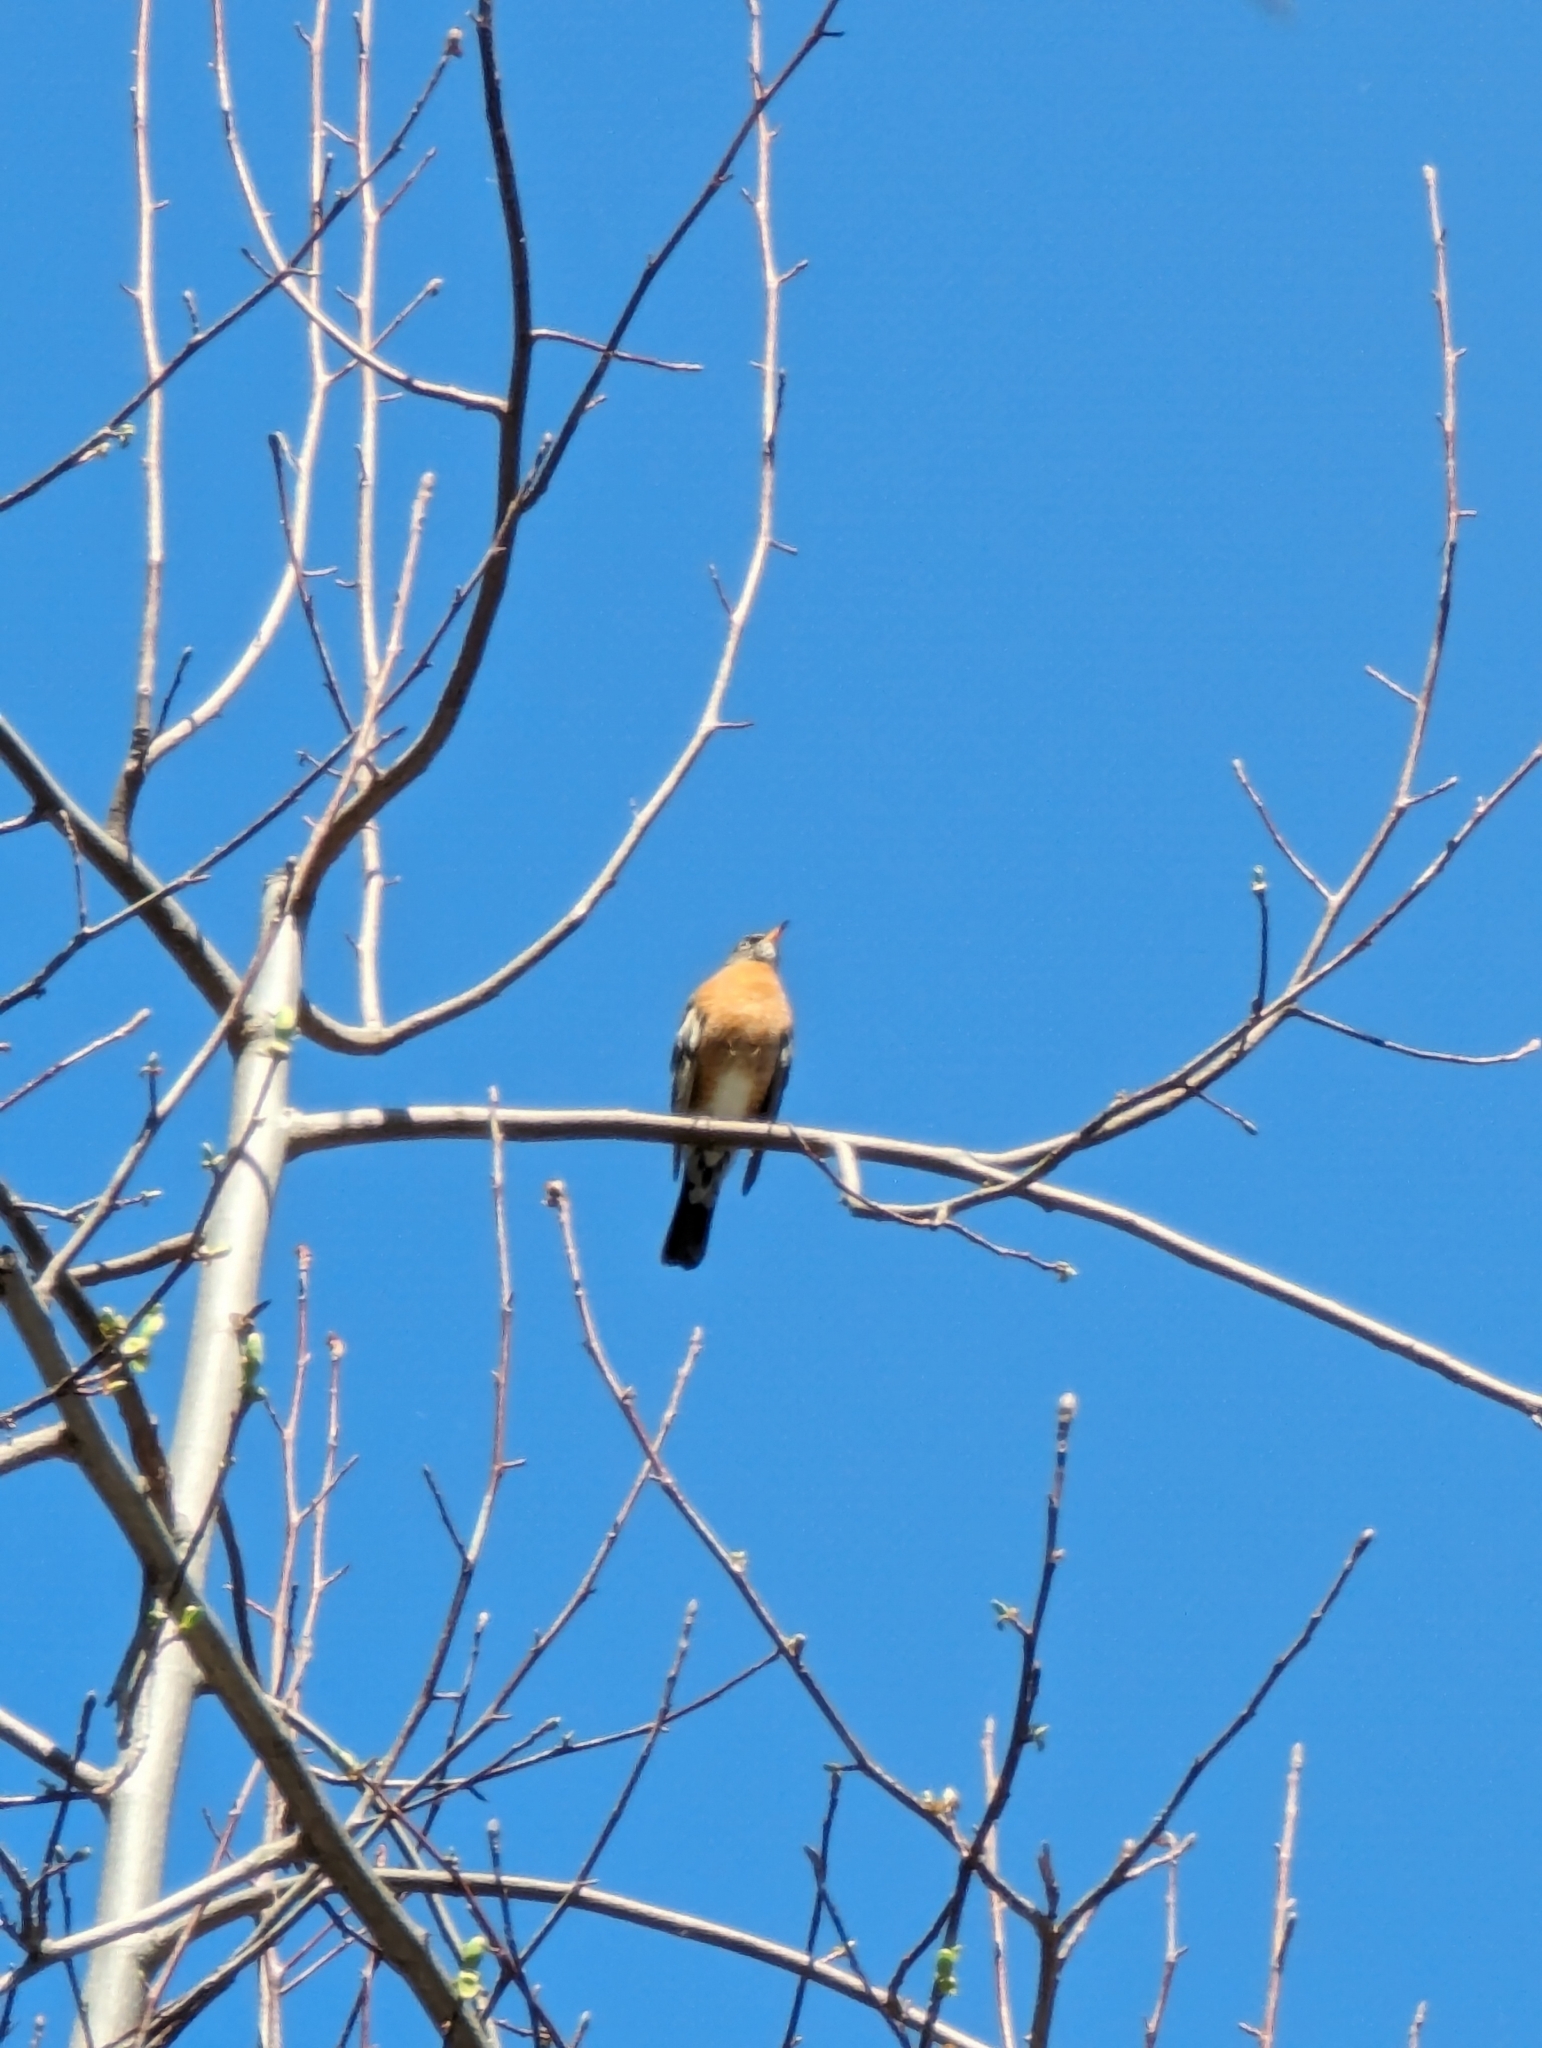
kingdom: Animalia
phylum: Chordata
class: Aves
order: Passeriformes
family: Turdidae
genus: Turdus
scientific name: Turdus migratorius
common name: American robin
